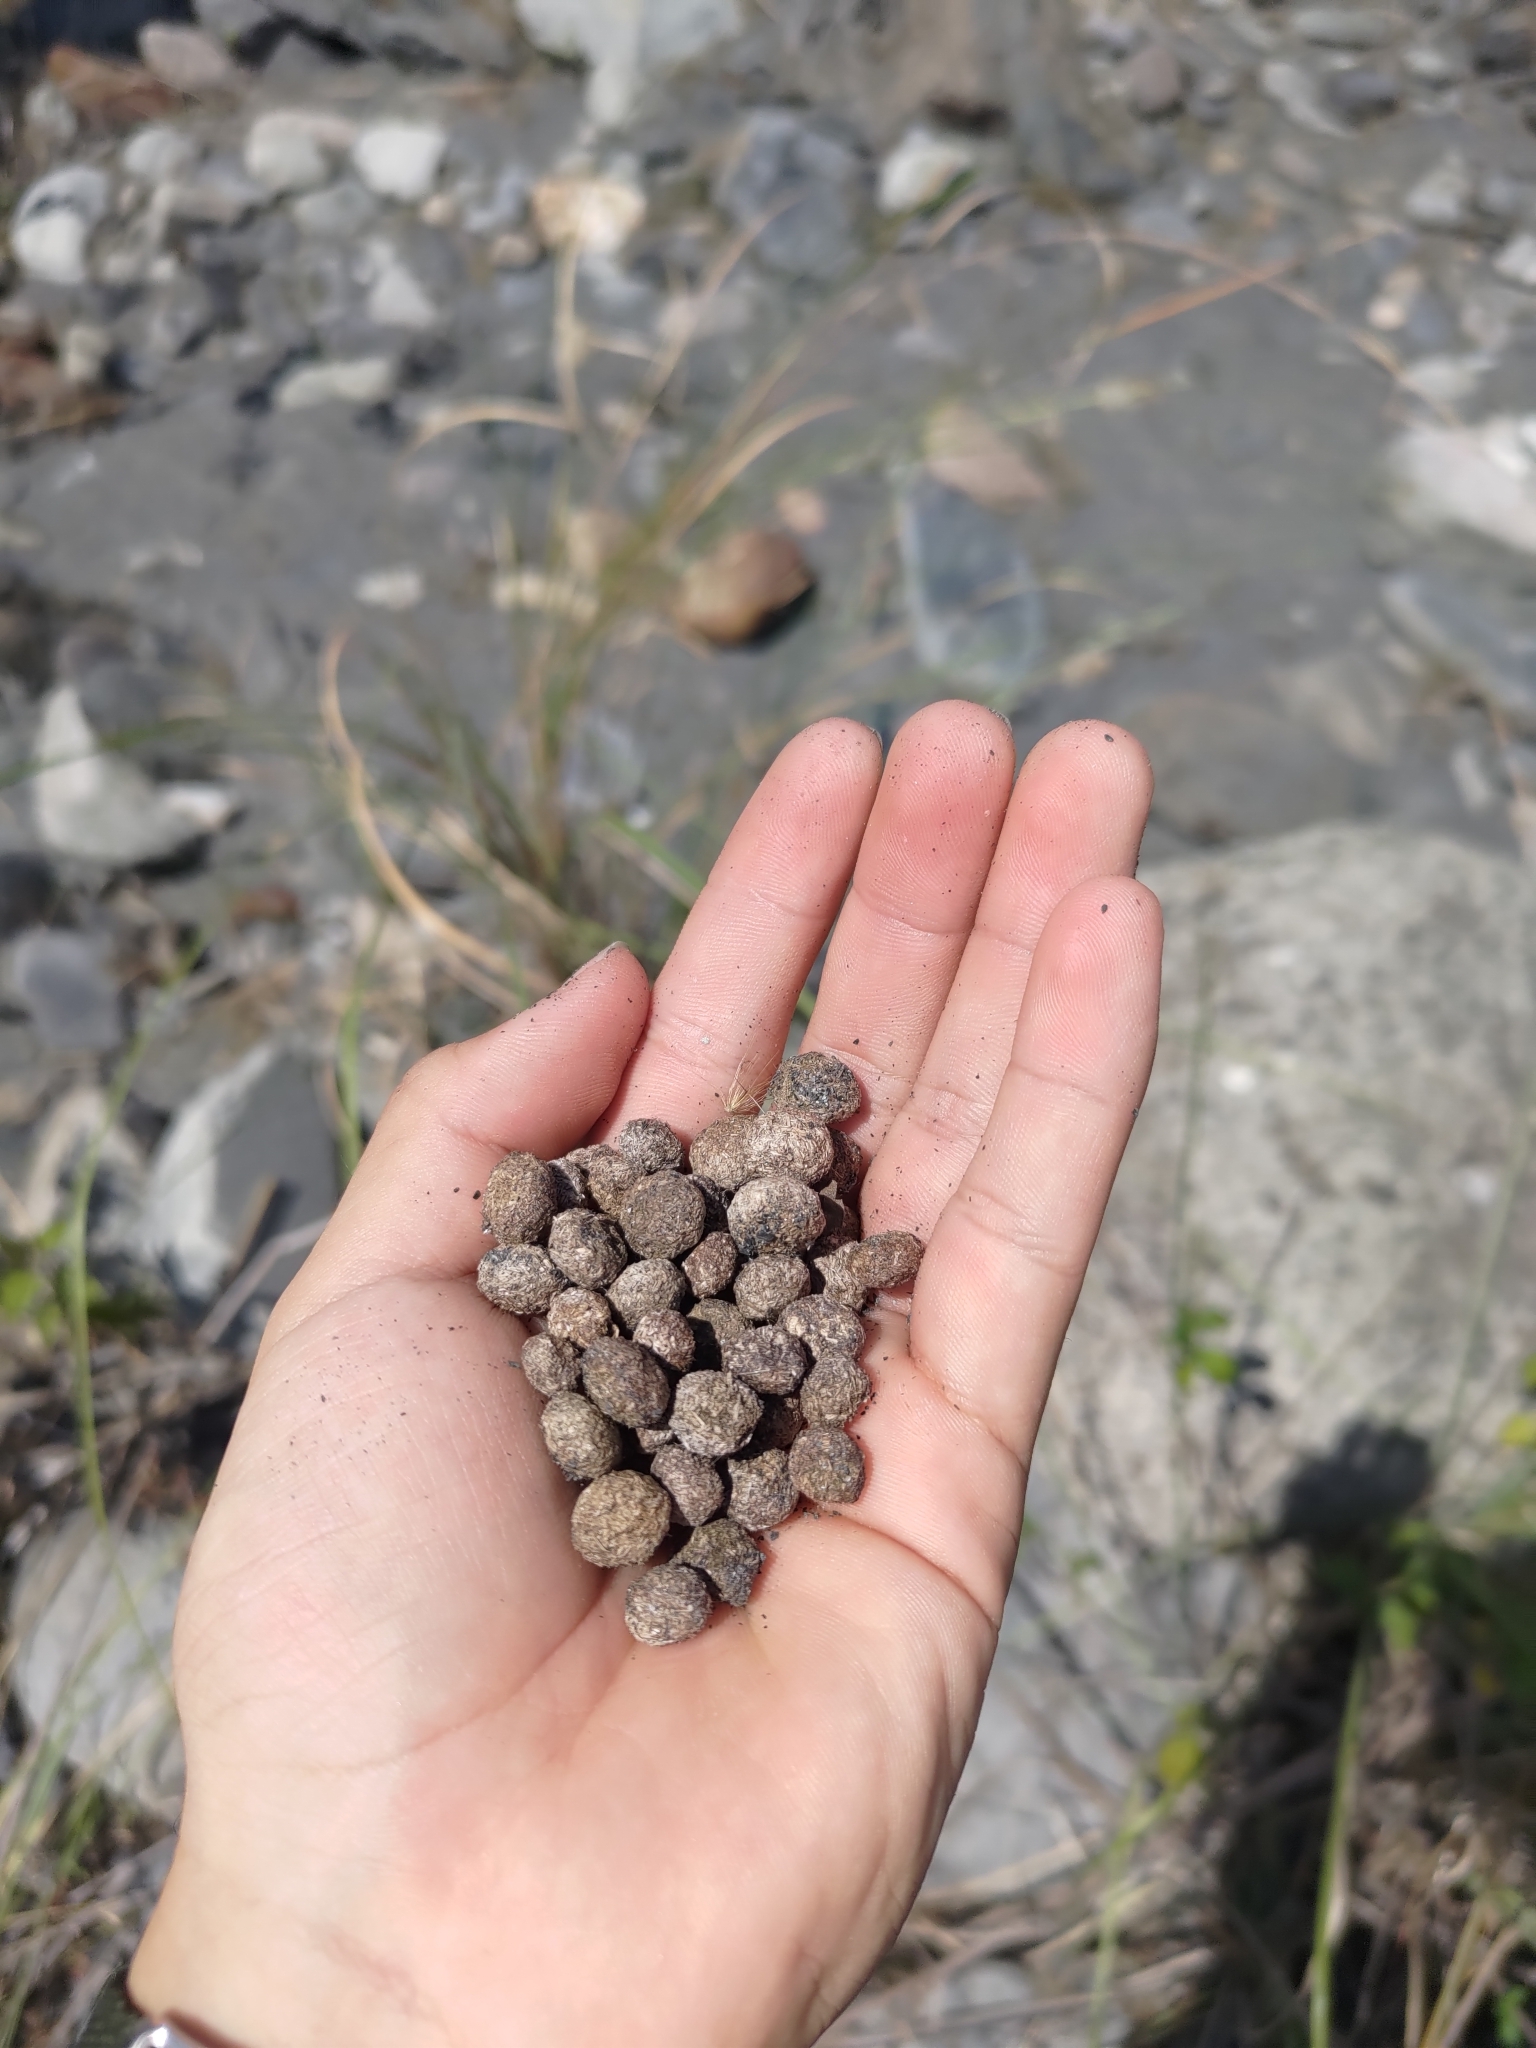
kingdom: Animalia
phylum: Chordata
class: Mammalia
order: Lagomorpha
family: Leporidae
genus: Lepus
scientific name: Lepus sinensis
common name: Chinese hare
